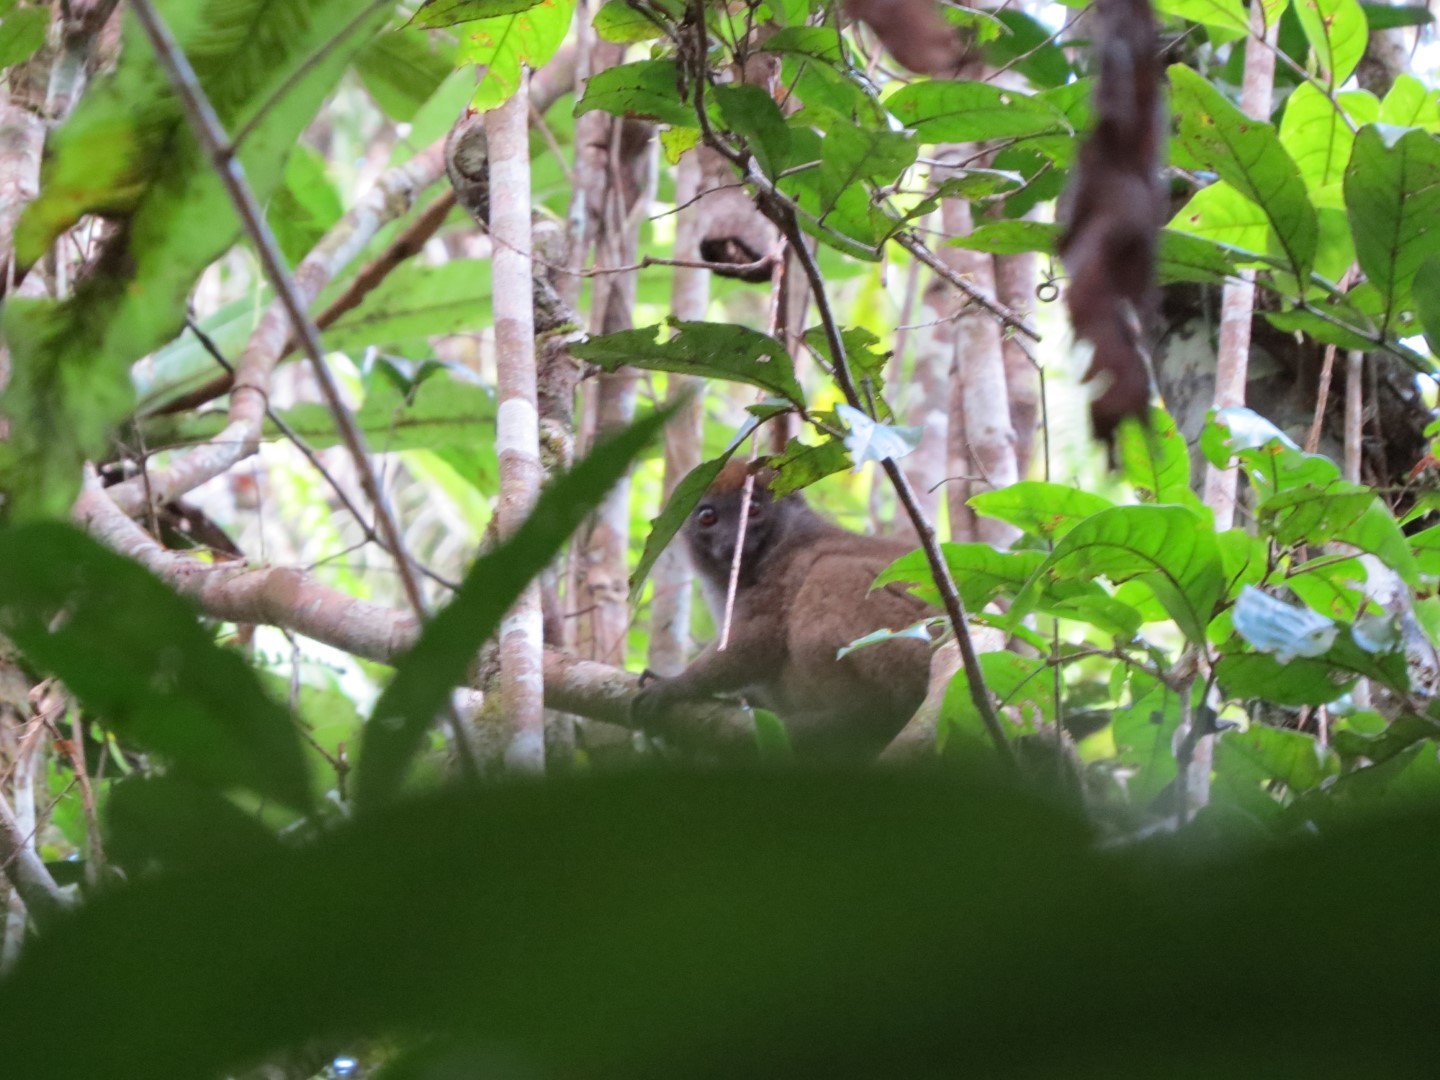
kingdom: Animalia
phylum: Chordata
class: Mammalia
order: Primates
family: Lemuridae
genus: Hapalemur
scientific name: Hapalemur occidentalis
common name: Sambirano bamboo lemur
